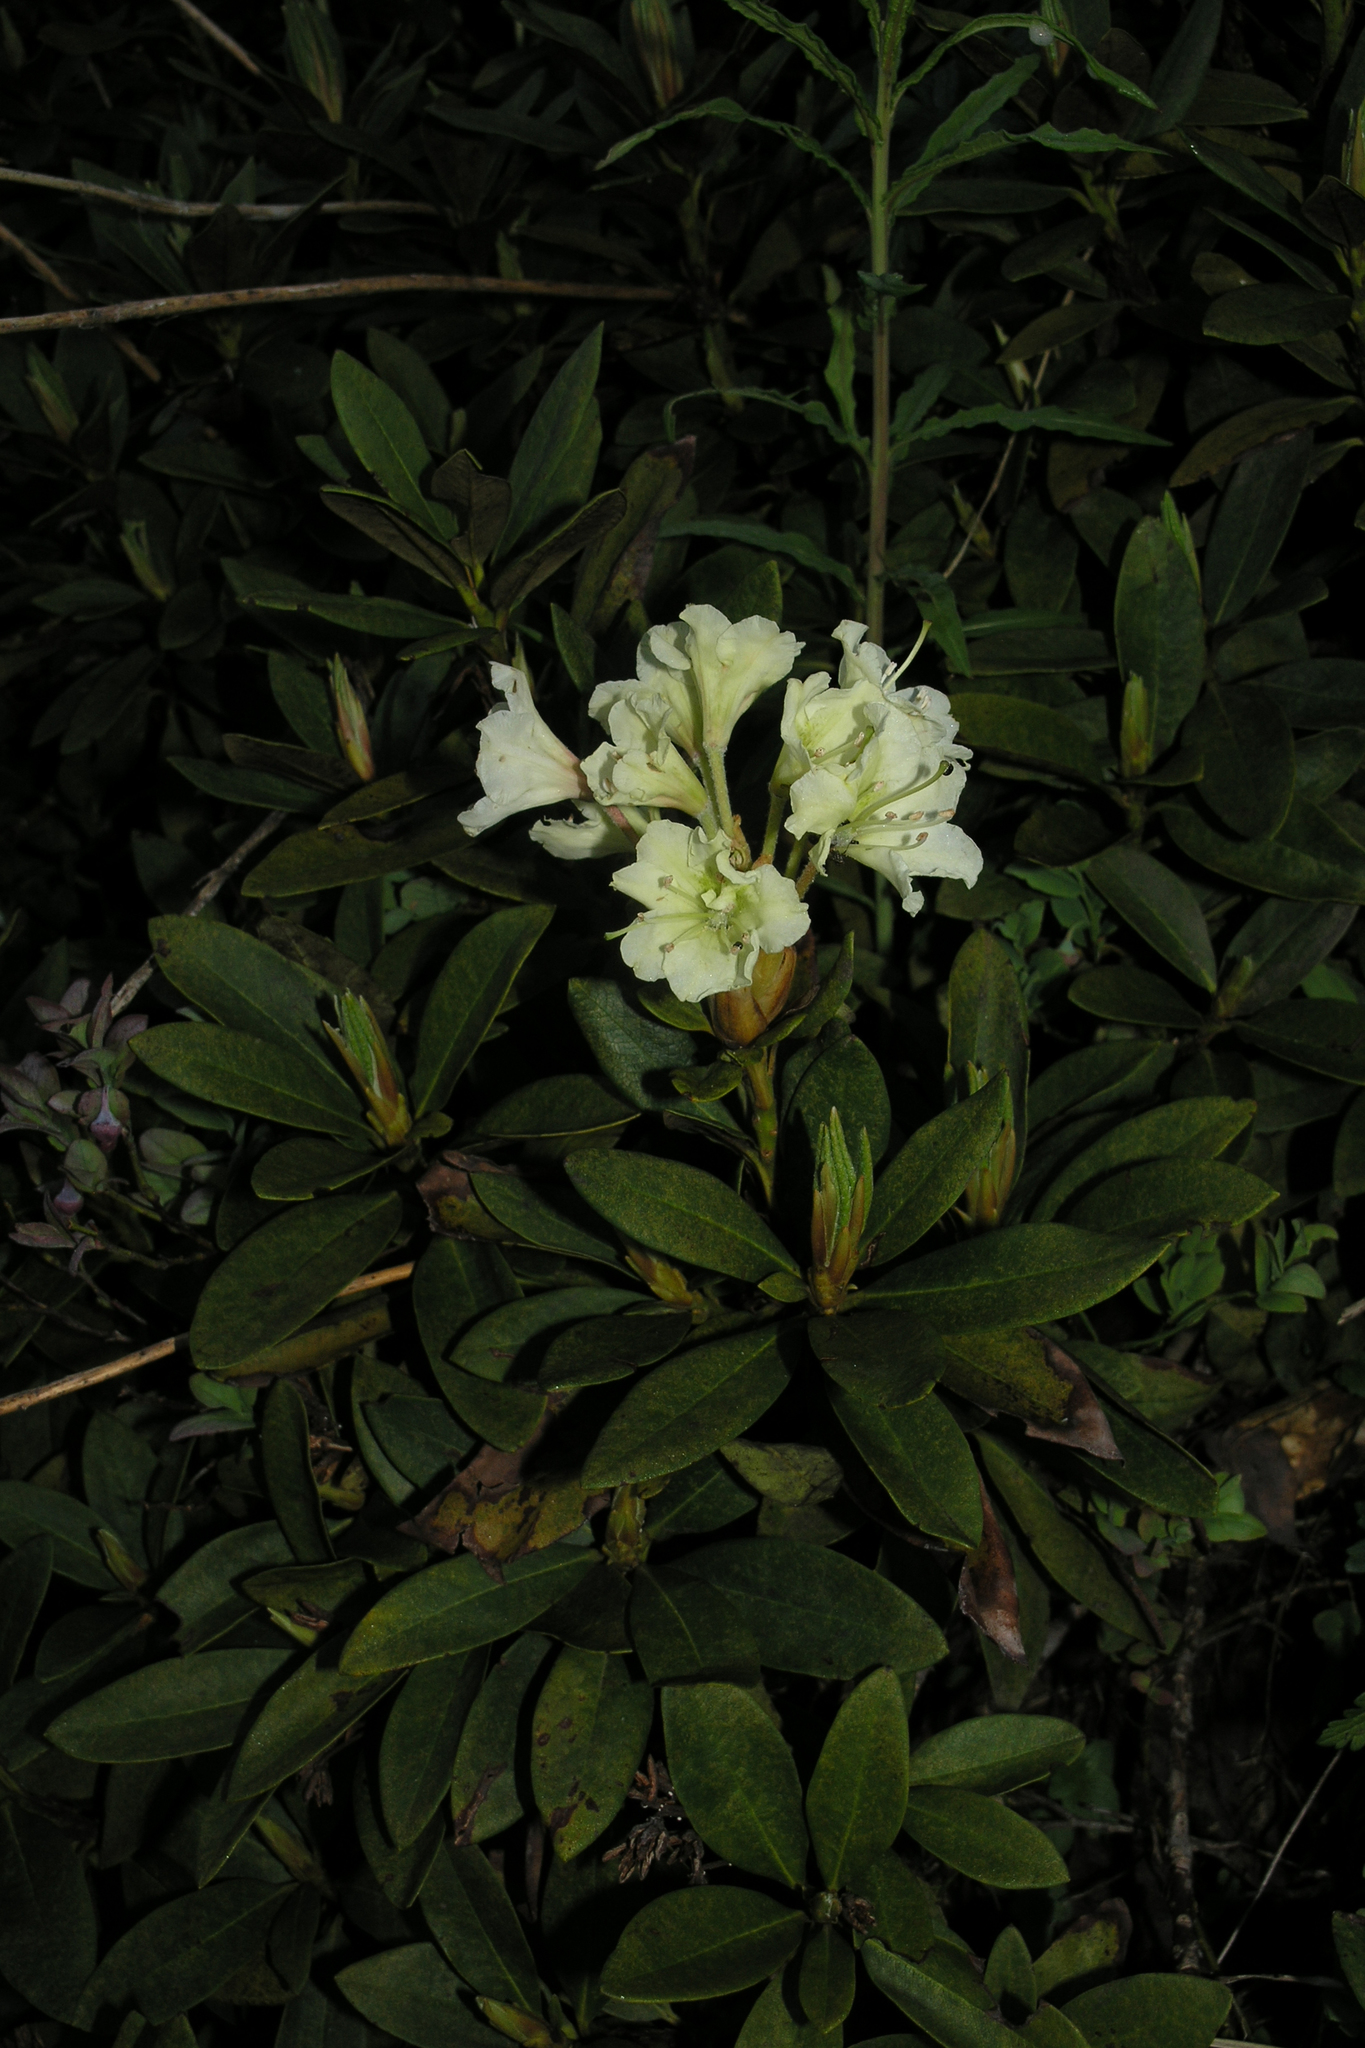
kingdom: Plantae
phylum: Tracheophyta
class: Magnoliopsida
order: Ericales
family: Ericaceae
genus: Rhododendron
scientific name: Rhododendron caucasicum
